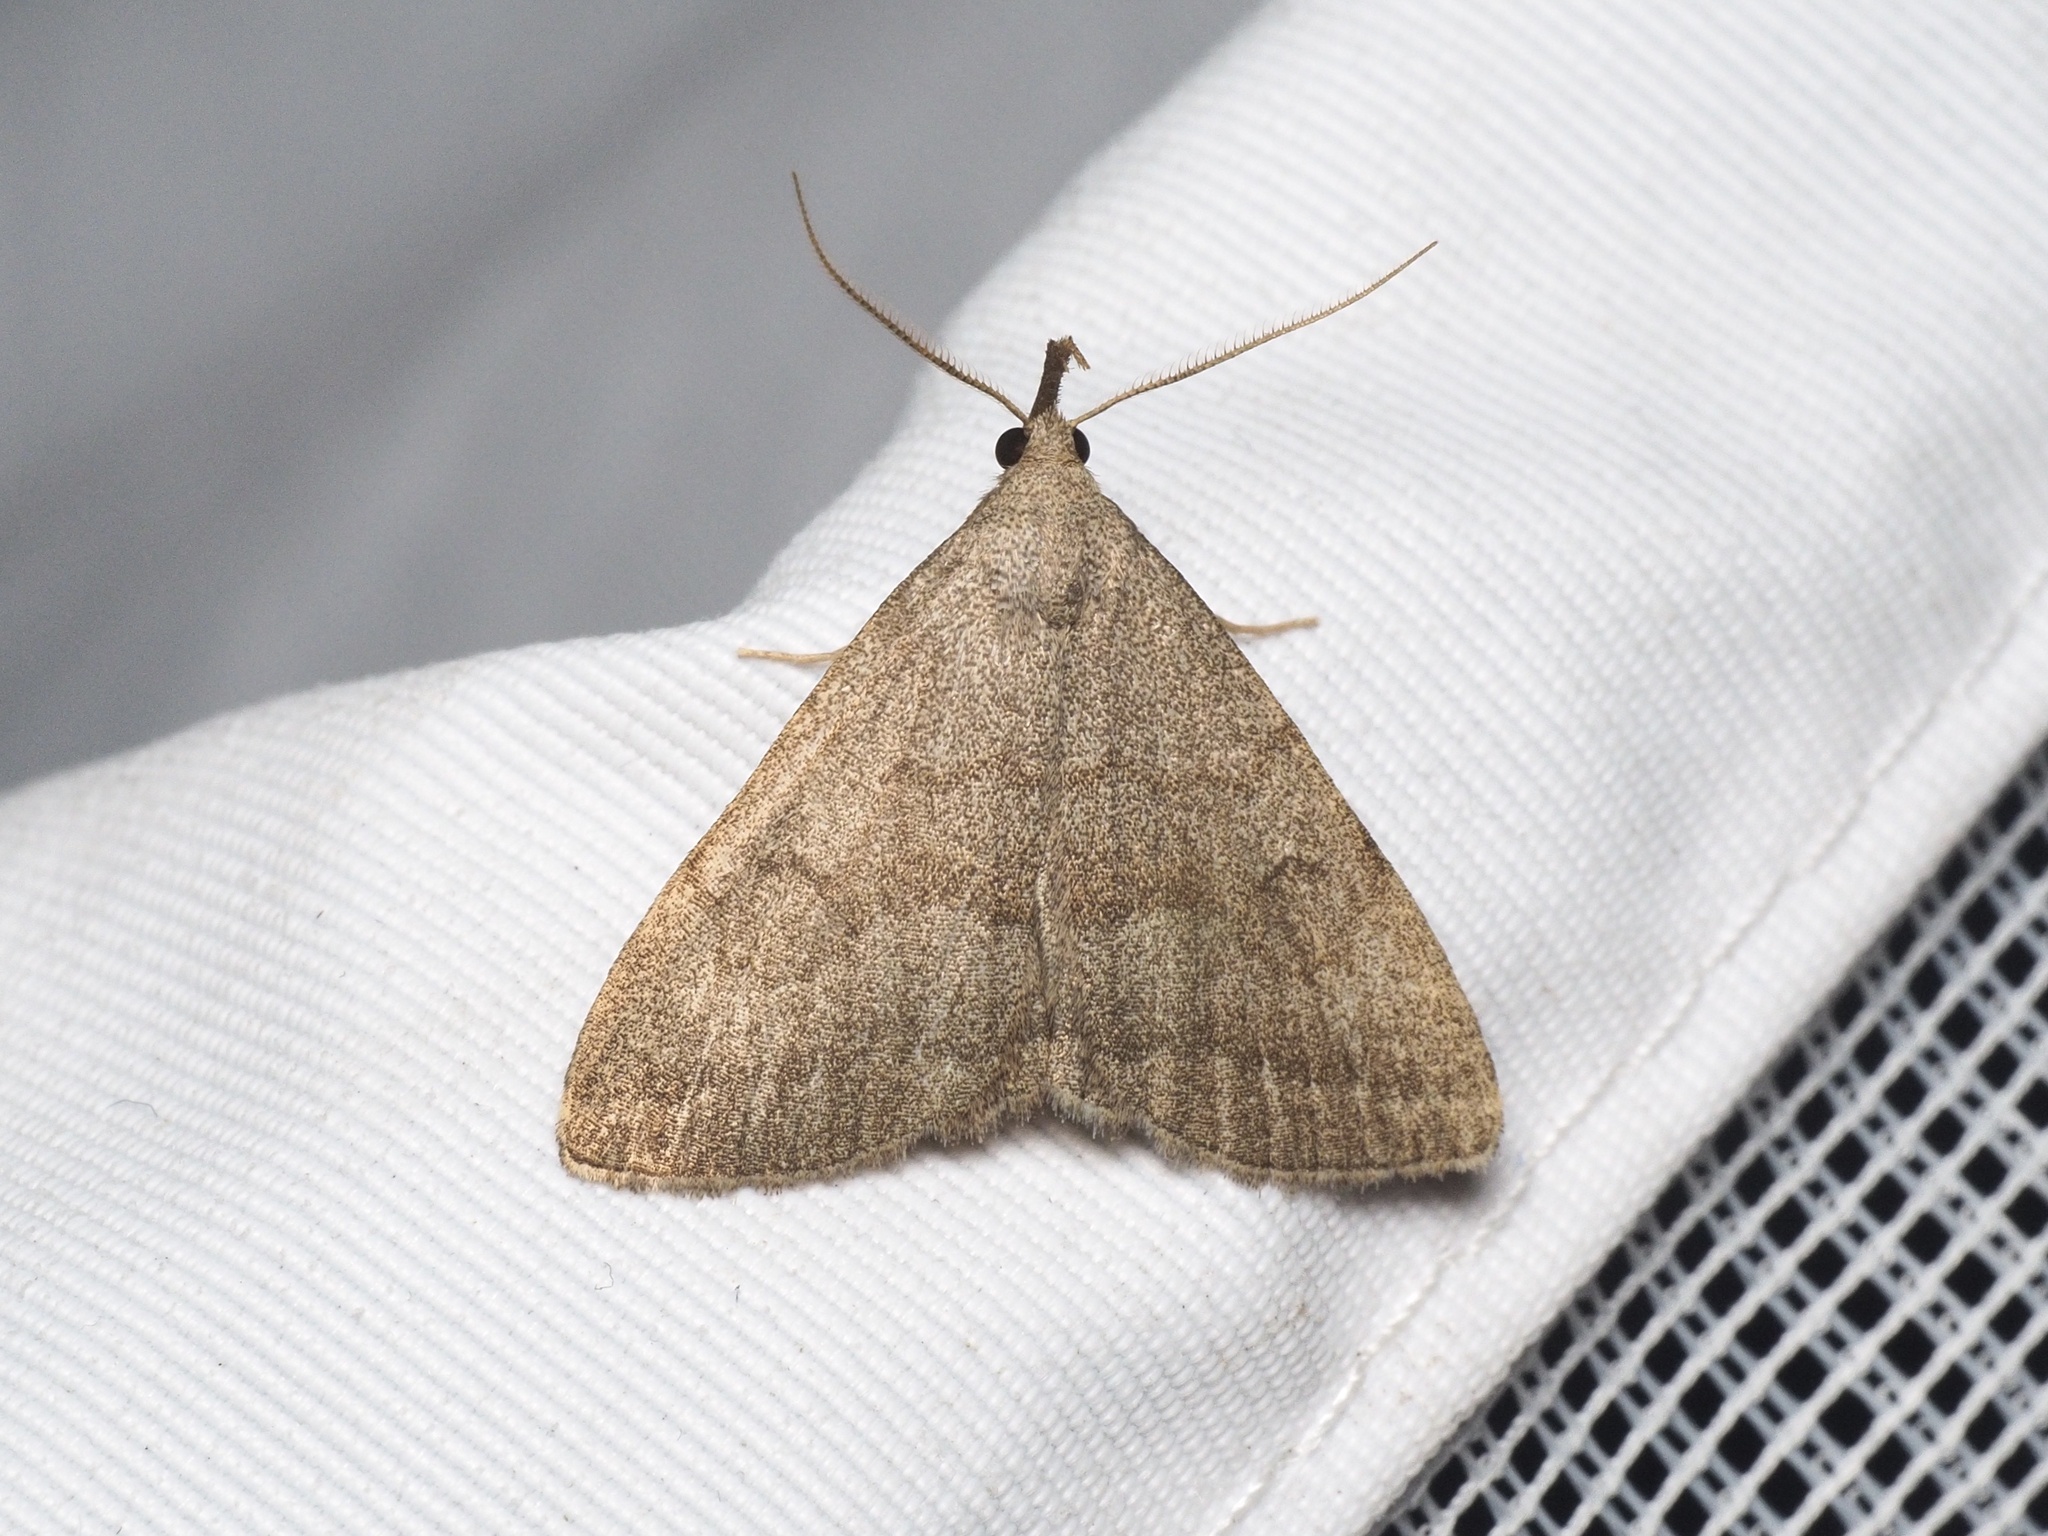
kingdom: Animalia
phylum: Arthropoda
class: Insecta
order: Lepidoptera
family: Erebidae
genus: Pechipogo
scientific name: Pechipogo strigilata
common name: Common fan-foot
